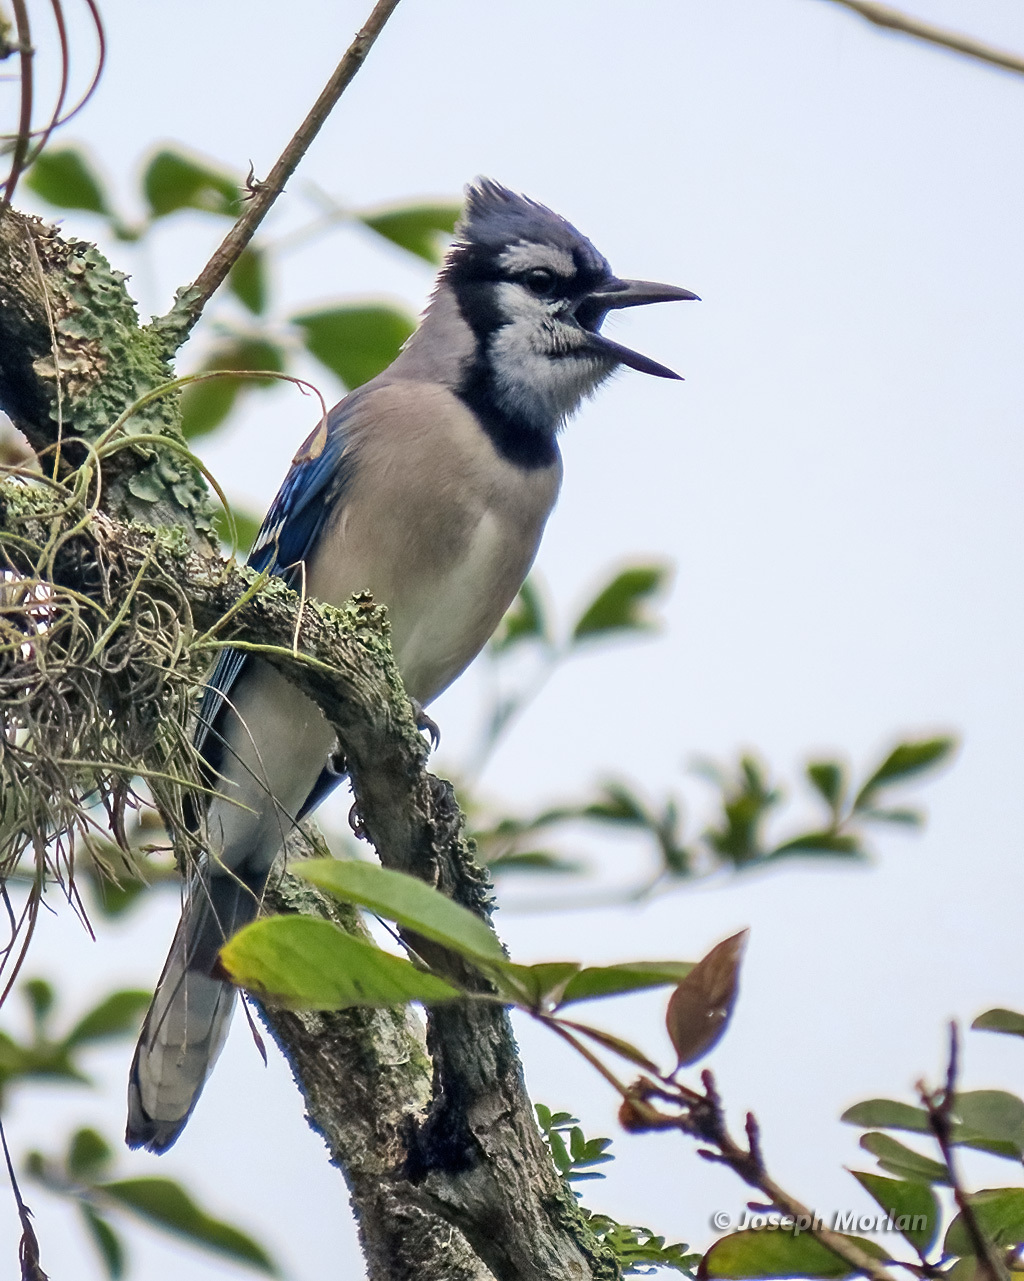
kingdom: Animalia
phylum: Chordata
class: Aves
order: Passeriformes
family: Corvidae
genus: Cyanocitta
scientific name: Cyanocitta cristata
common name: Blue jay
